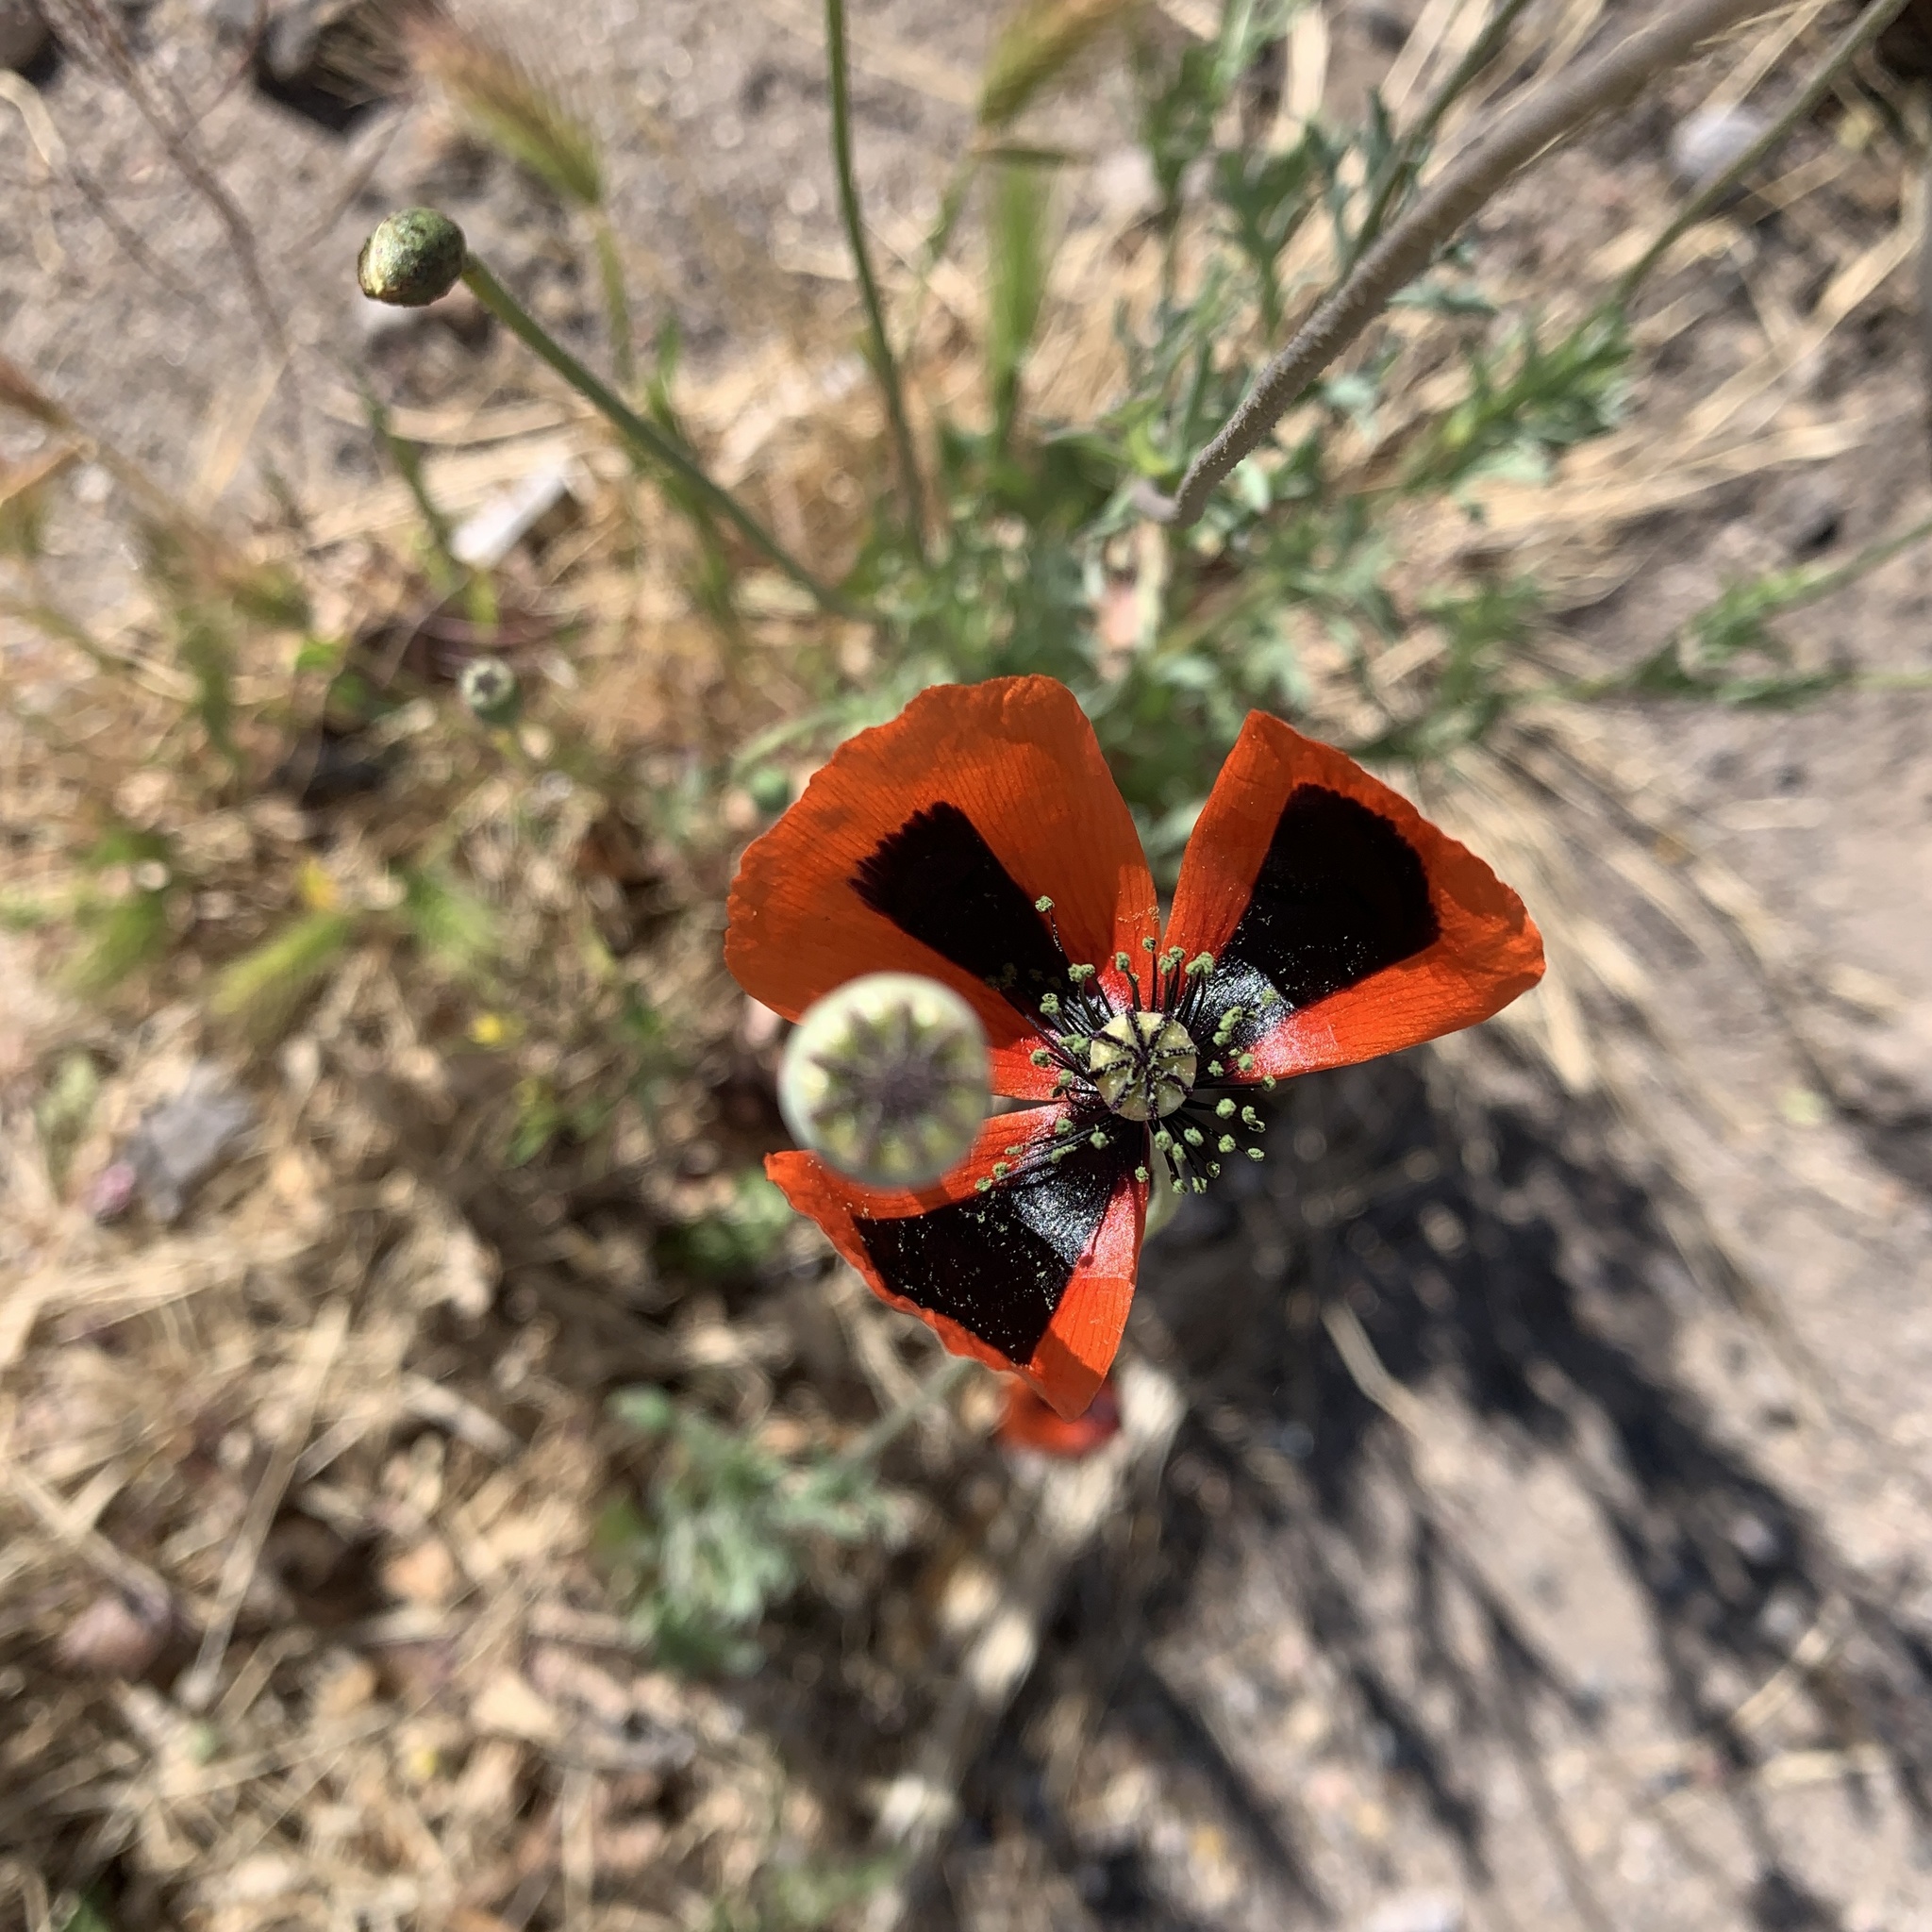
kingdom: Plantae
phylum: Tracheophyta
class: Magnoliopsida
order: Ranunculales
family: Papaveraceae
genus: Papaver
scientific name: Papaver dubium
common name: Long-headed poppy
